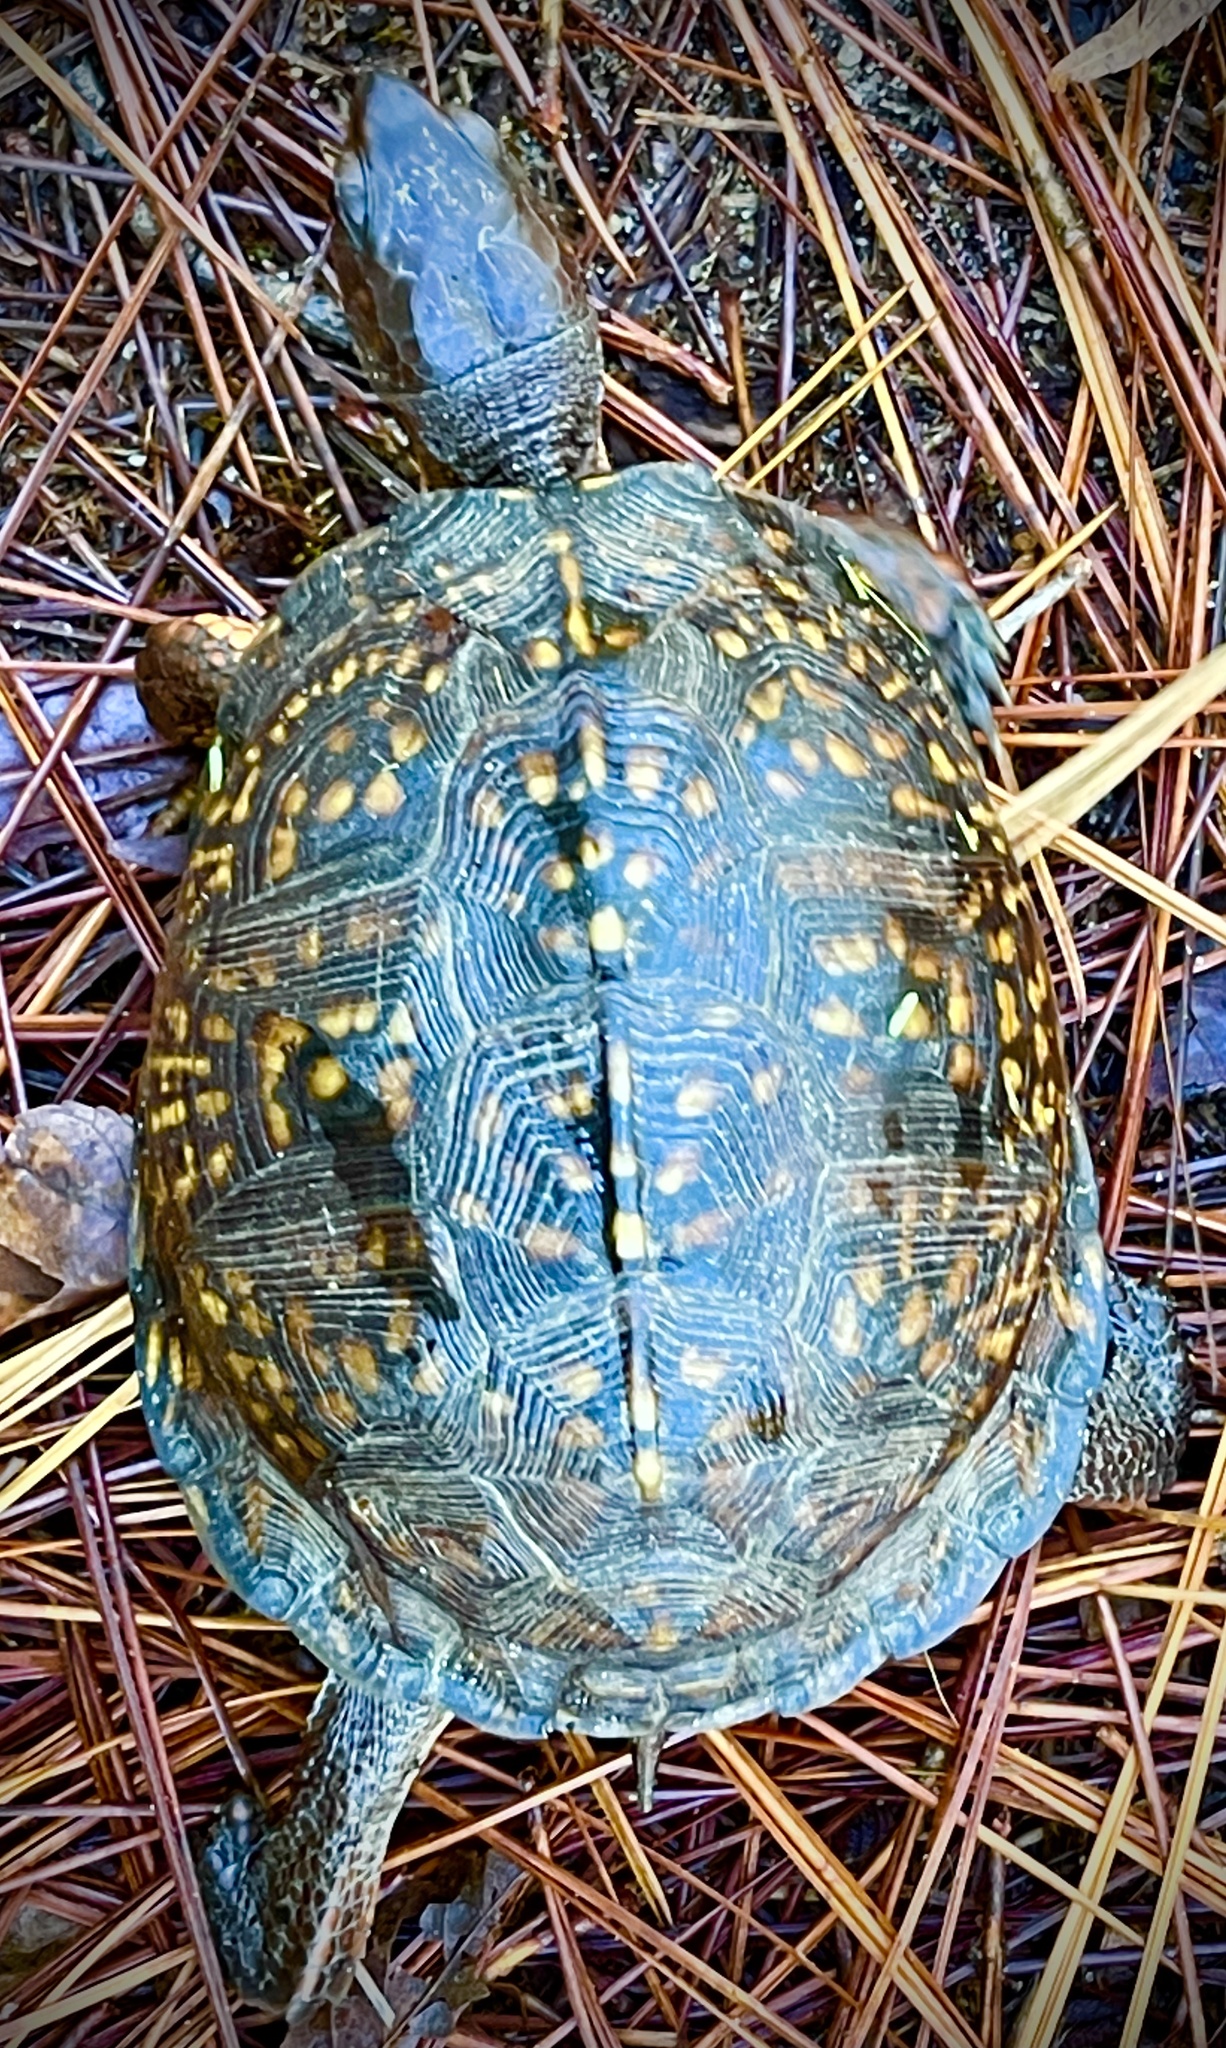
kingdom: Animalia
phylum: Chordata
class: Testudines
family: Emydidae
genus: Terrapene
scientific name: Terrapene carolina
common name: Common box turtle
